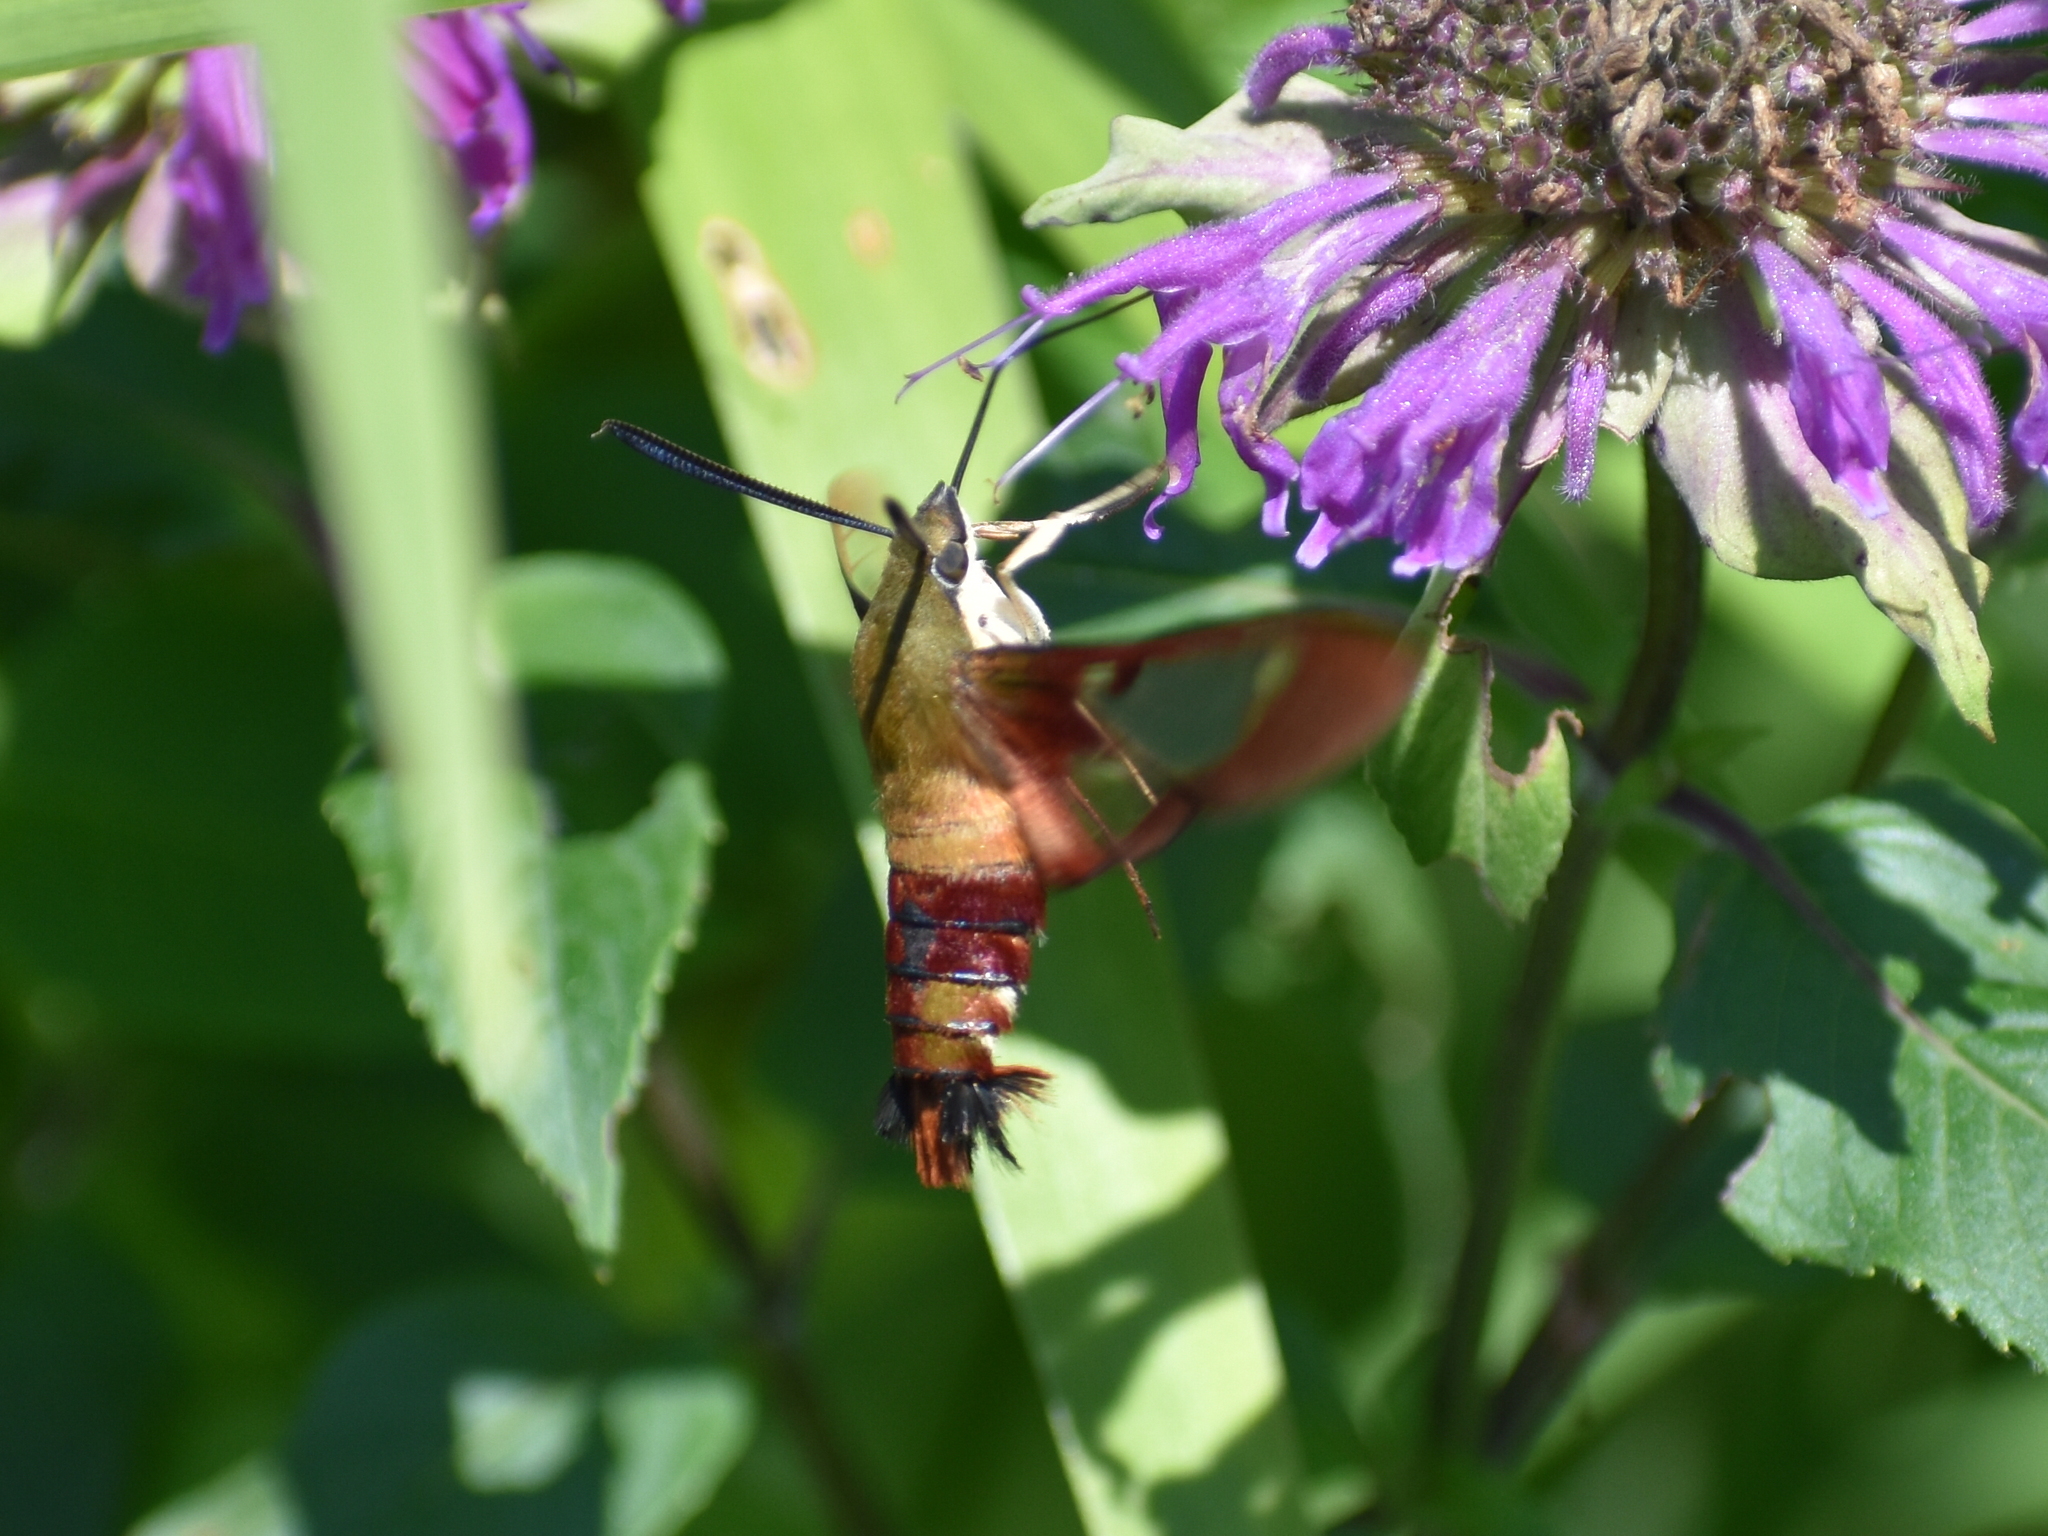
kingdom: Animalia
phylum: Arthropoda
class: Insecta
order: Lepidoptera
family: Sphingidae
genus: Hemaris
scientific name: Hemaris thysbe
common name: Common clear-wing
